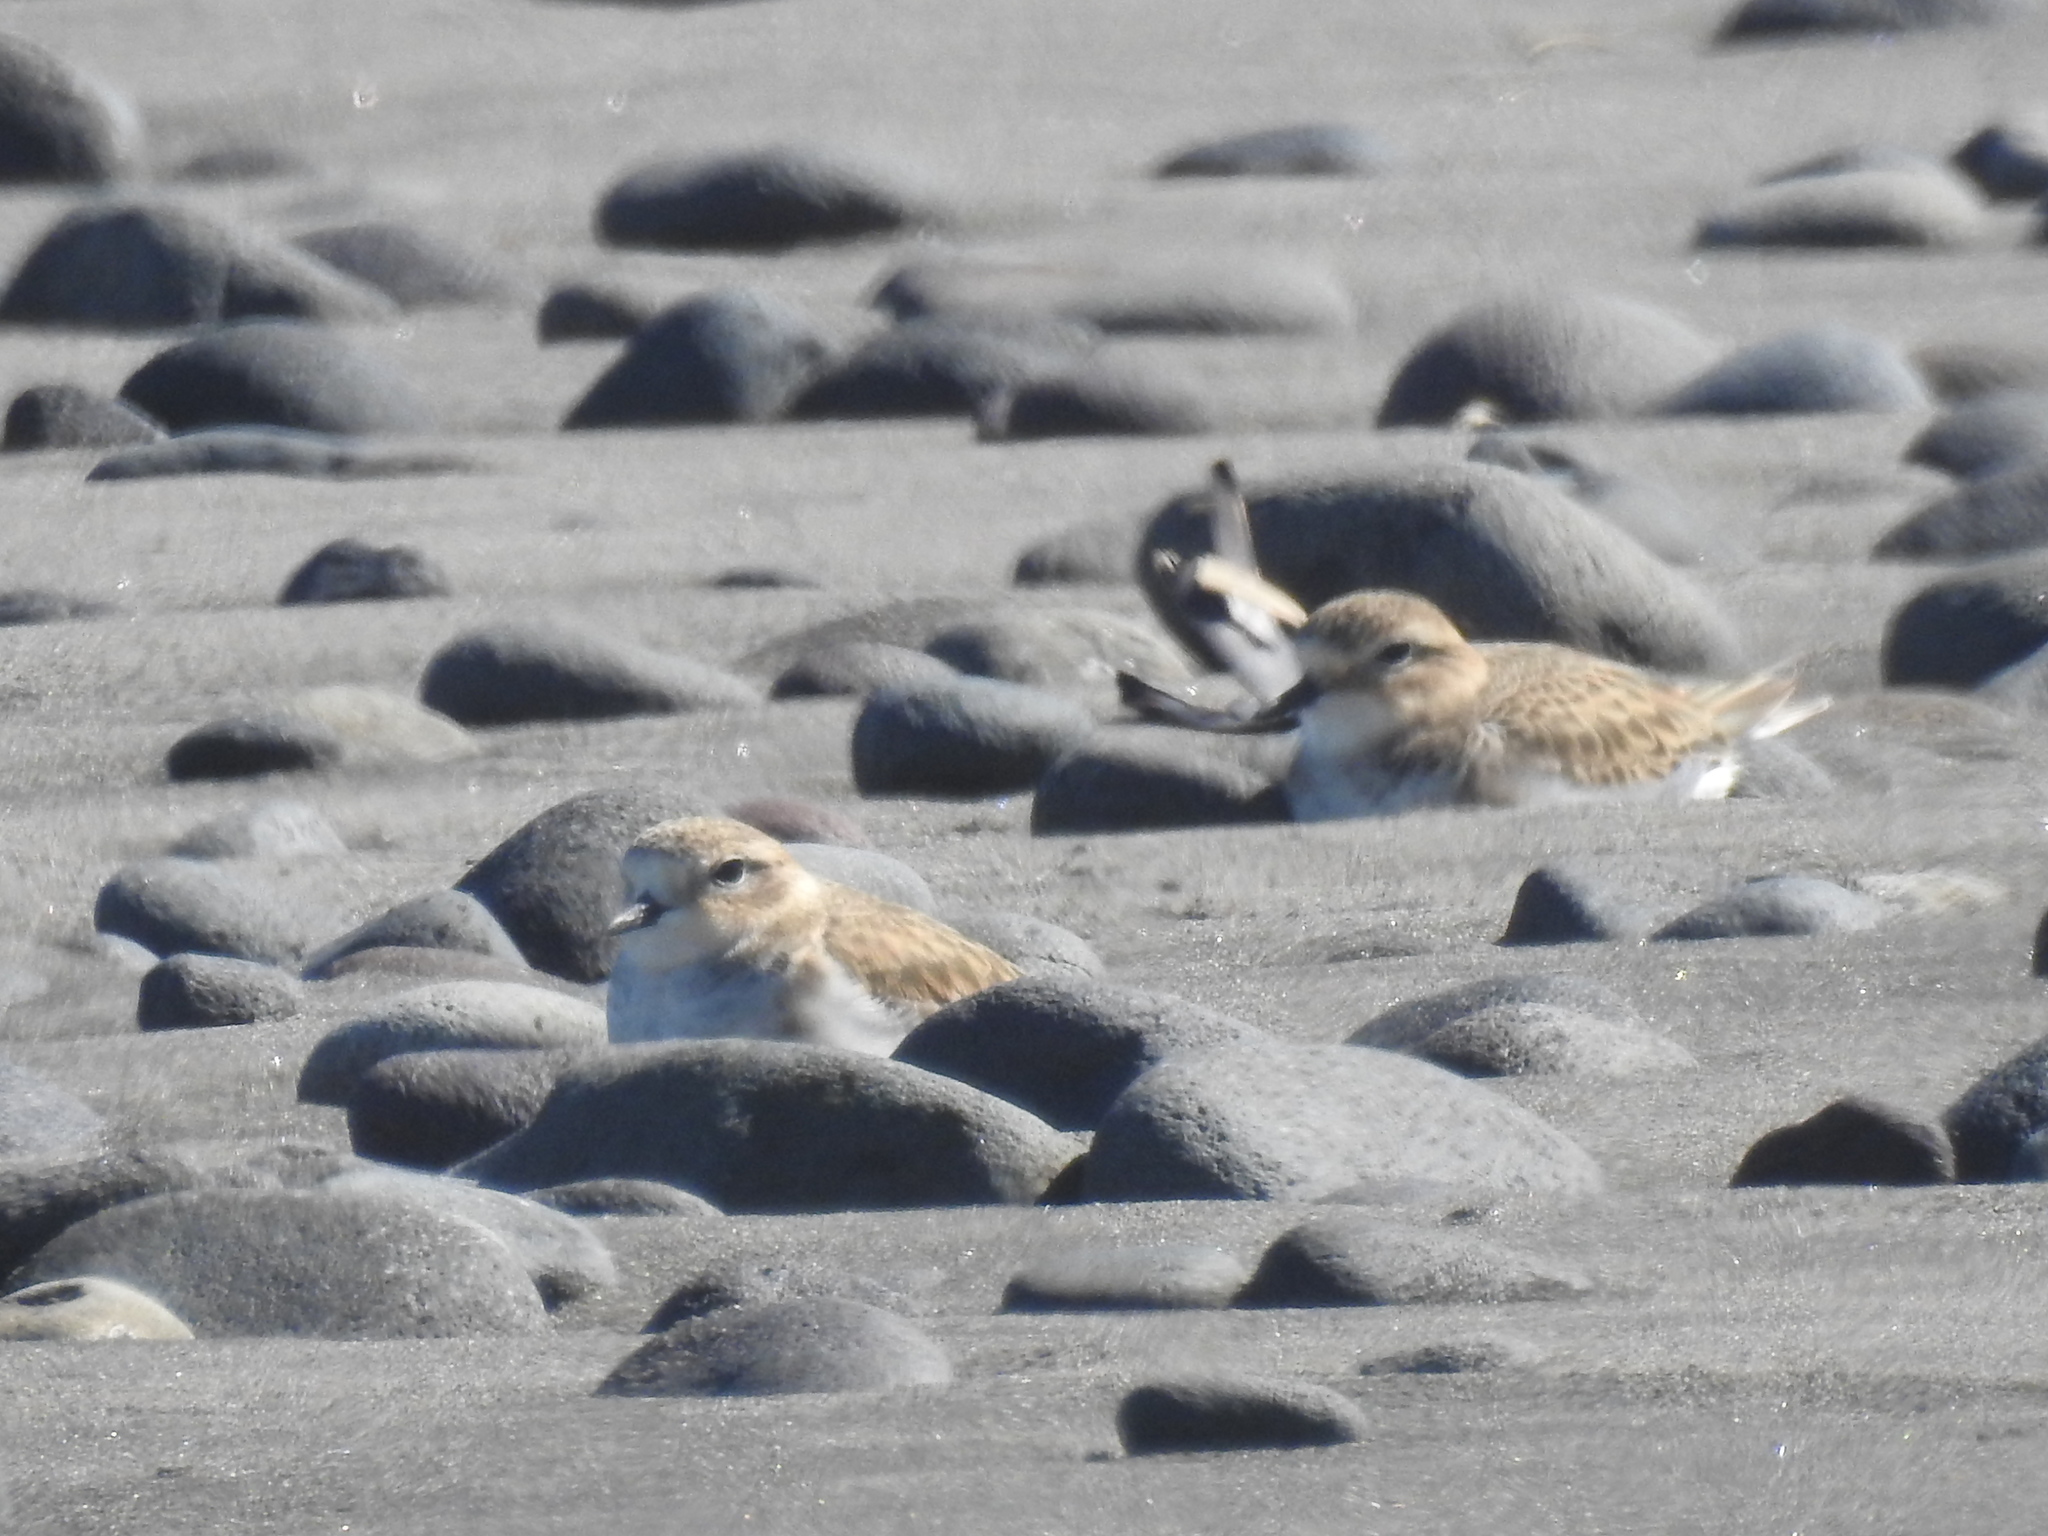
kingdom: Animalia
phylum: Chordata
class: Aves
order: Charadriiformes
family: Charadriidae
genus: Anarhynchus
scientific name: Anarhynchus
